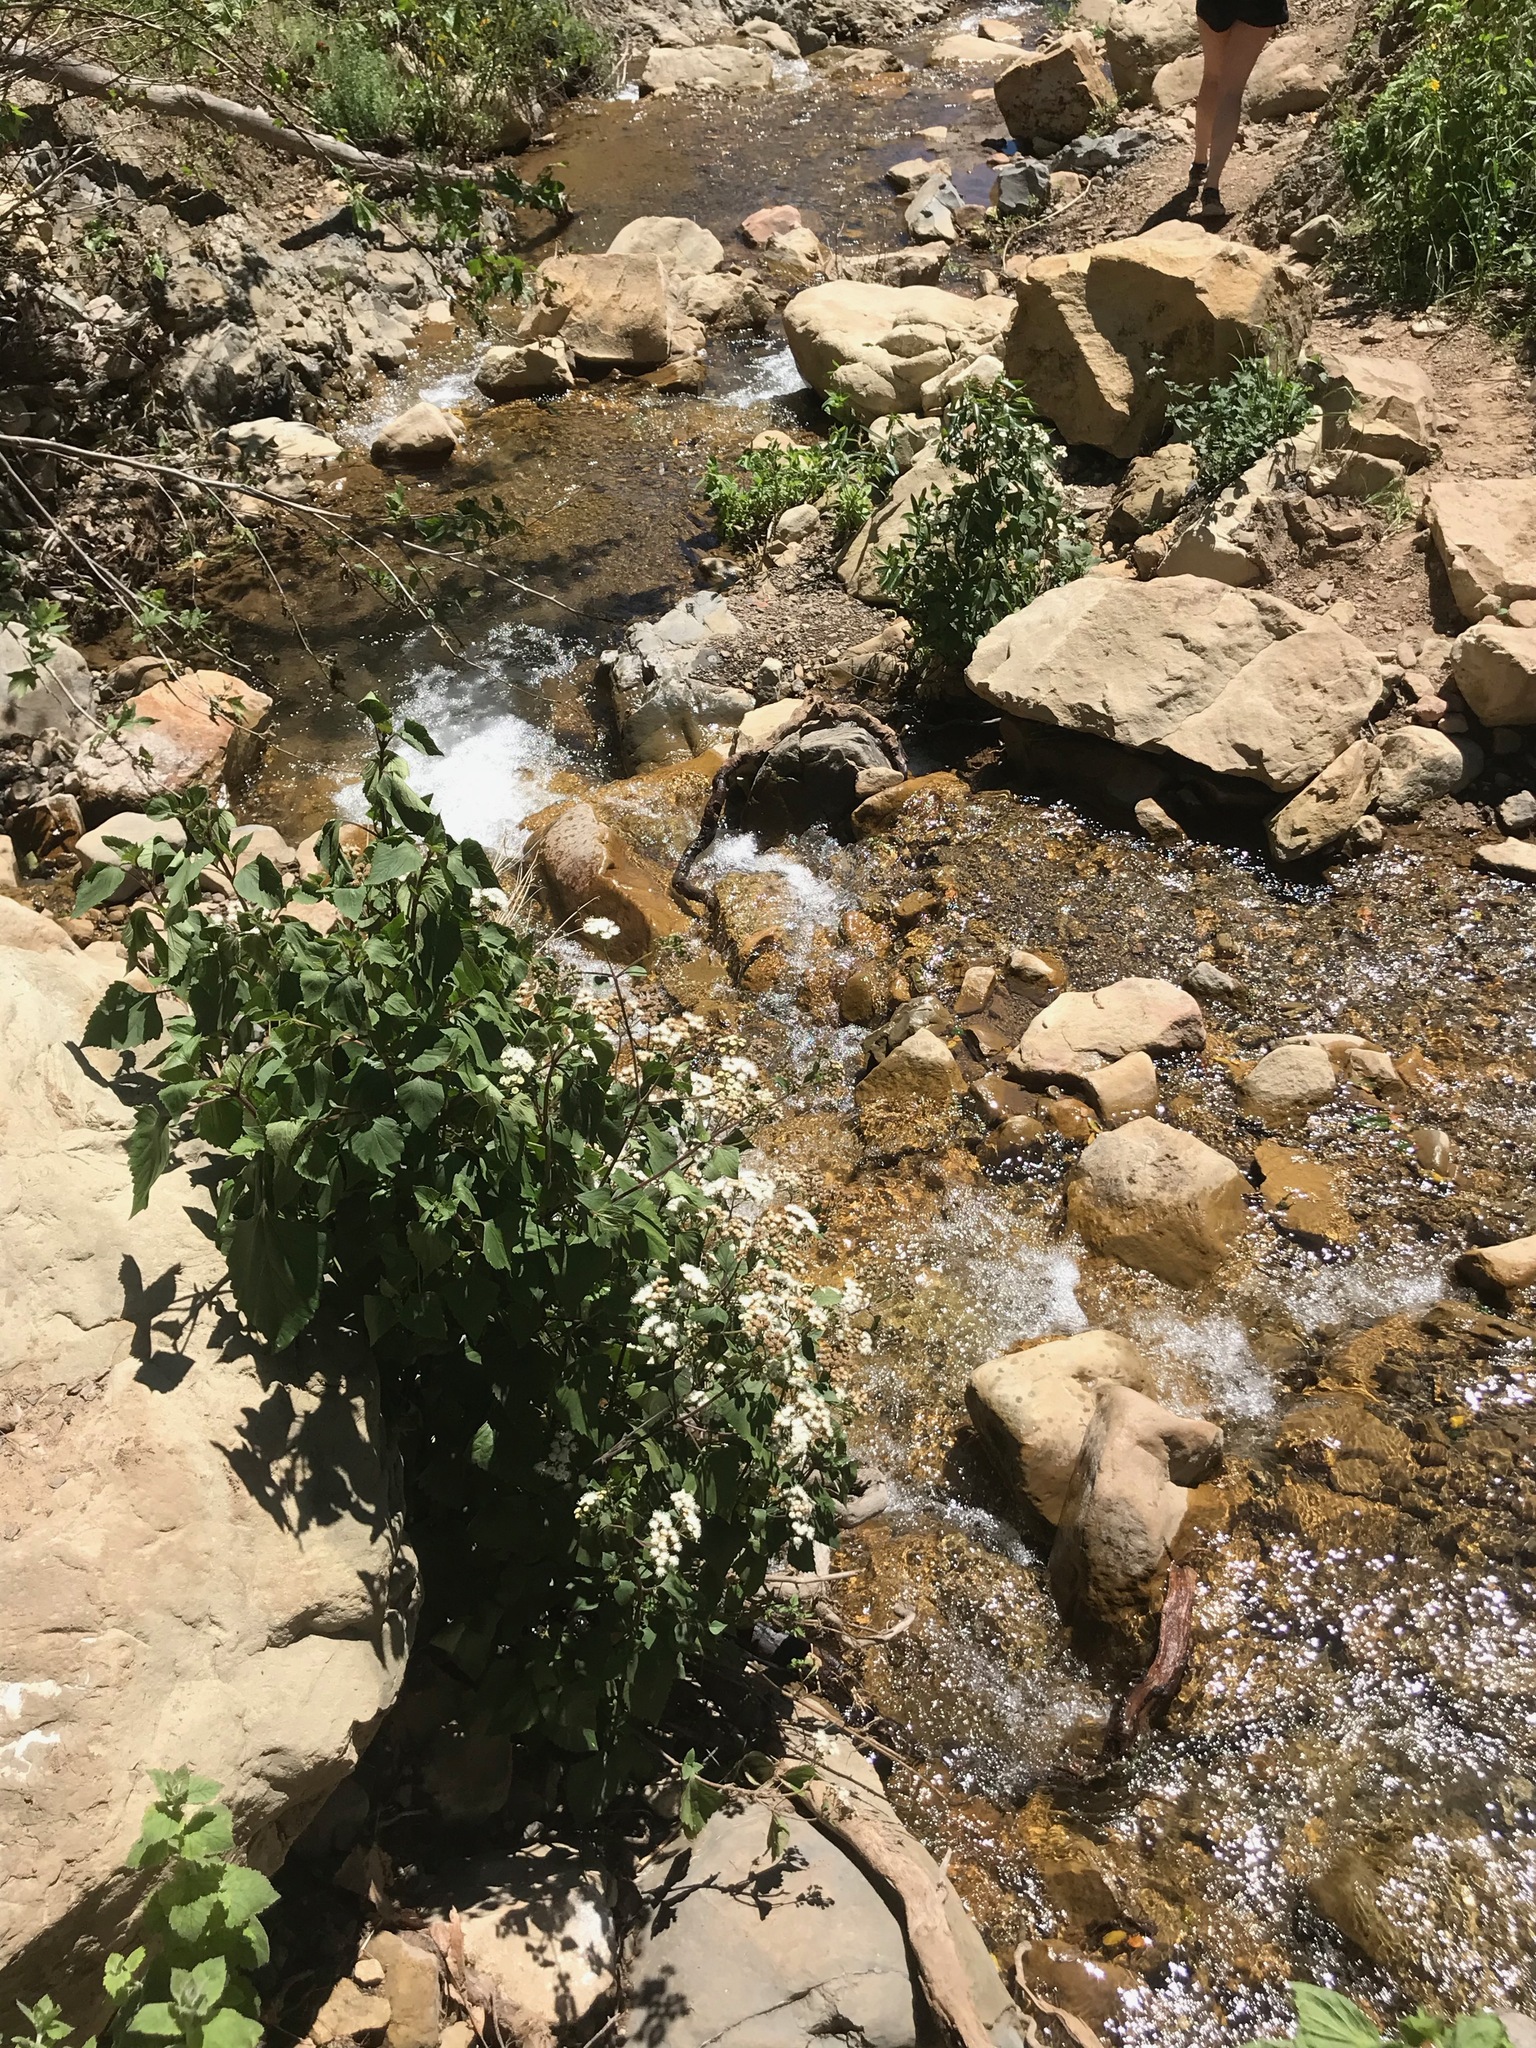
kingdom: Plantae
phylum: Tracheophyta
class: Magnoliopsida
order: Asterales
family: Asteraceae
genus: Ageratina
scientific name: Ageratina adenophora
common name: Sticky snakeroot
